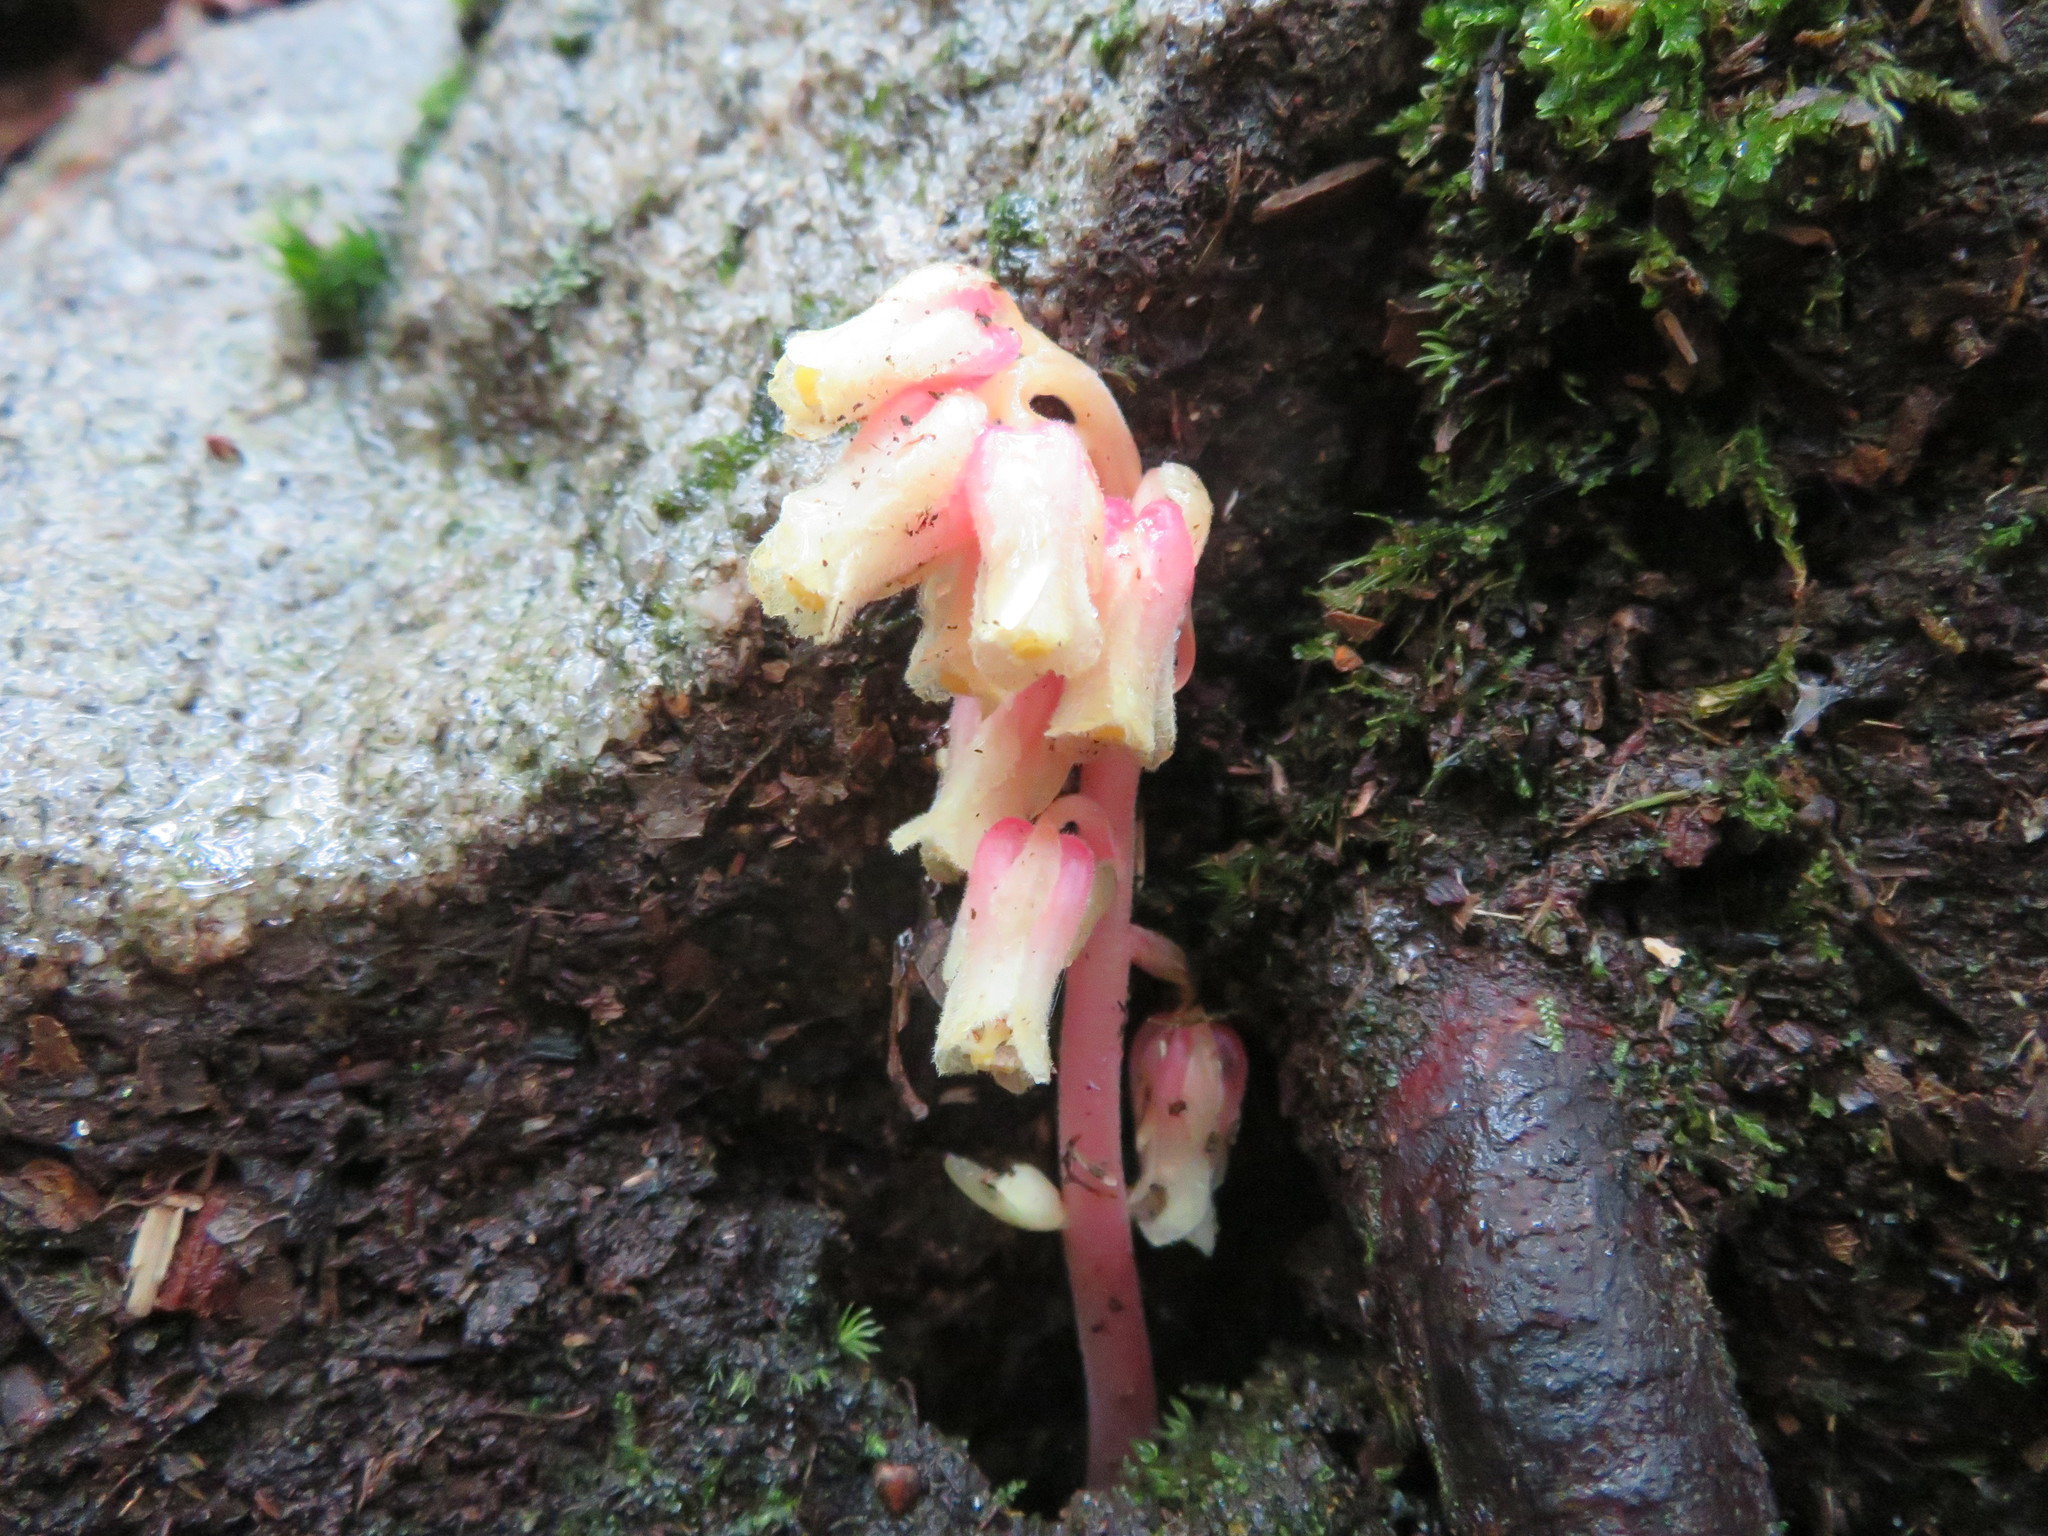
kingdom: Plantae
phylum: Tracheophyta
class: Magnoliopsida
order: Ericales
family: Ericaceae
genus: Hypopitys
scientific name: Hypopitys monotropa
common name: Yellow bird's-nest
